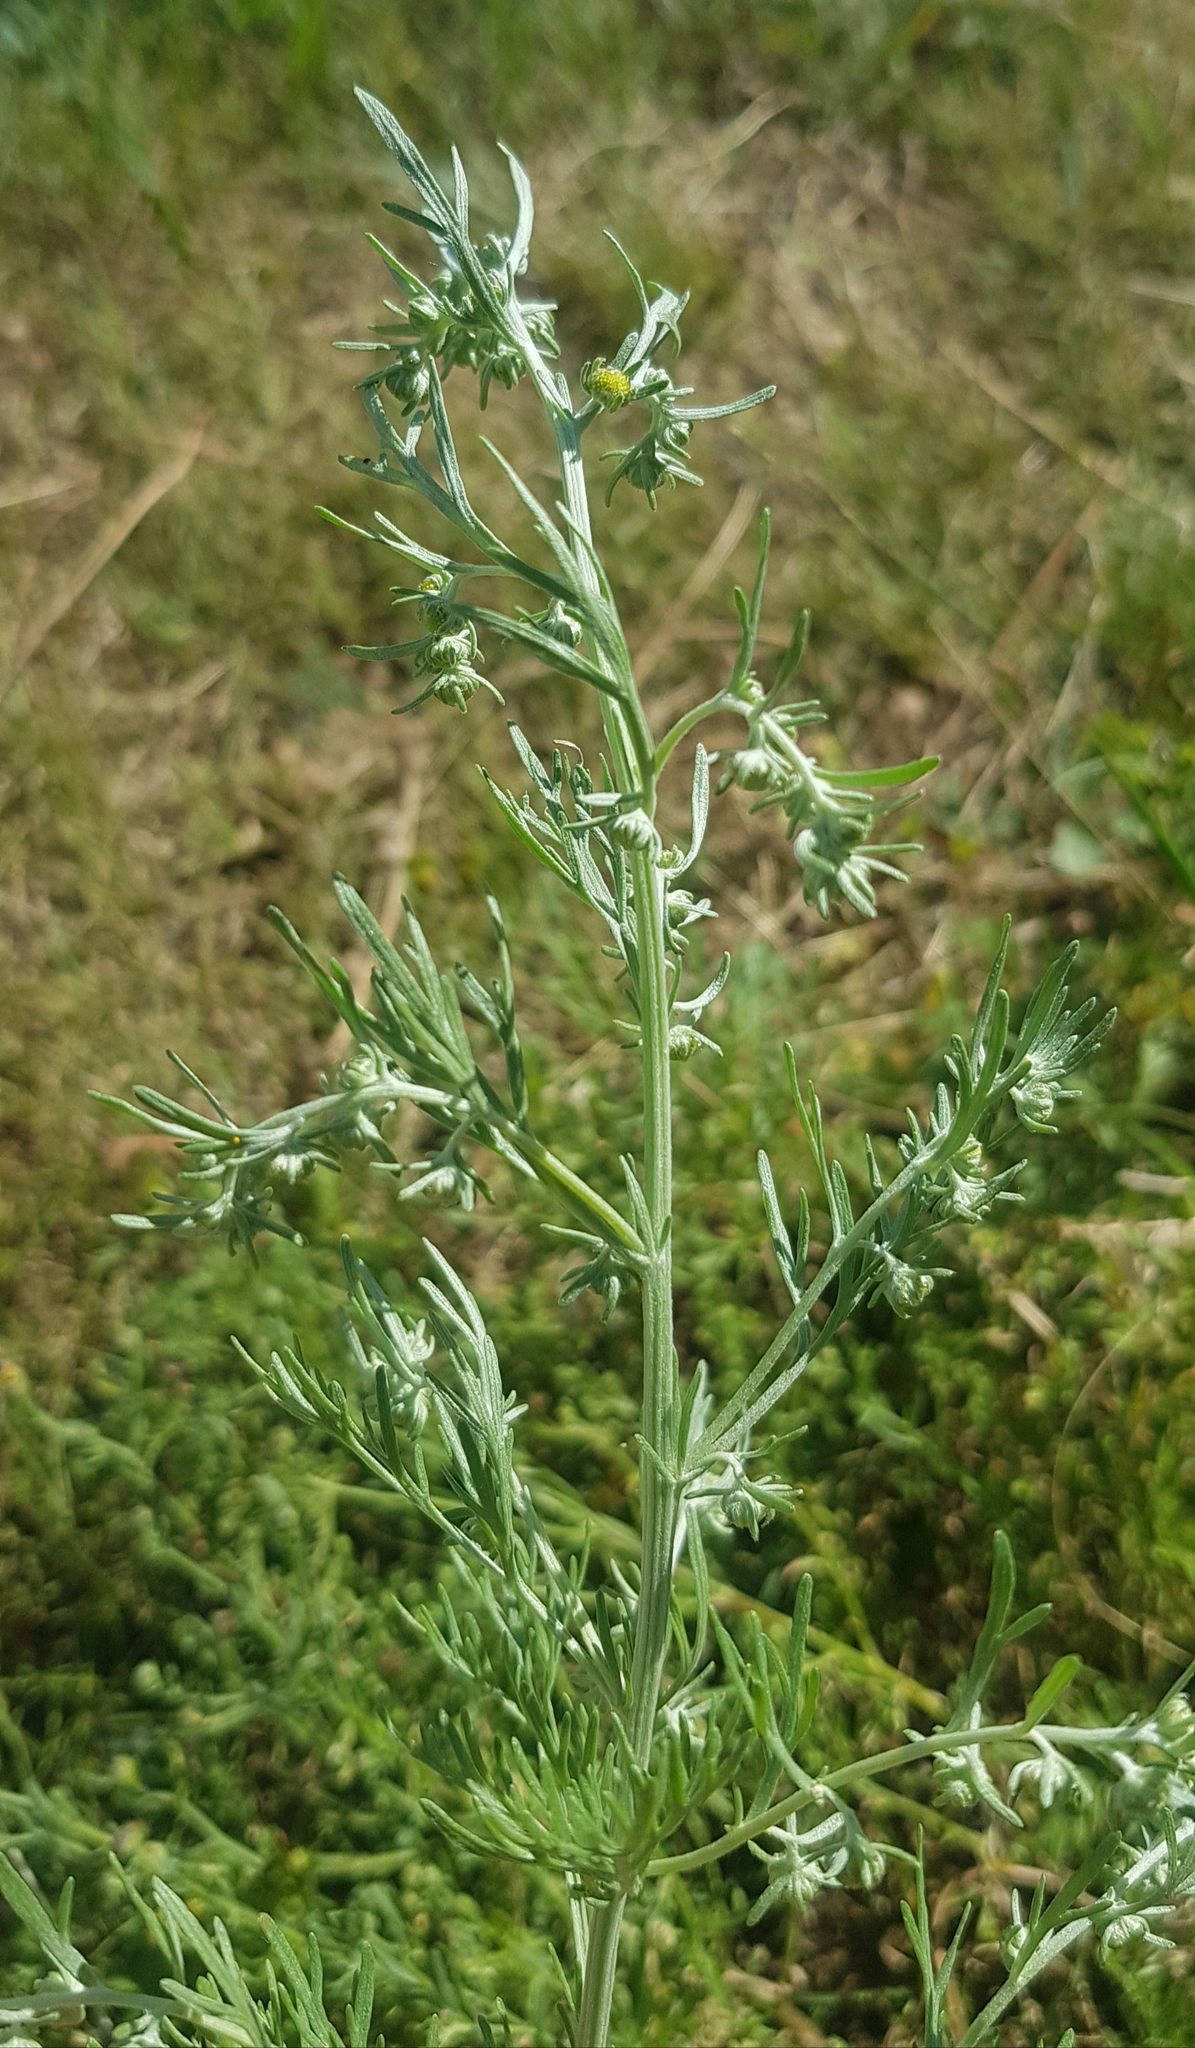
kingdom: Plantae
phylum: Tracheophyta
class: Magnoliopsida
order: Asterales
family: Asteraceae
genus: Artemisia
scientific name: Artemisia sieversiana
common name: Sieversian wormwood
